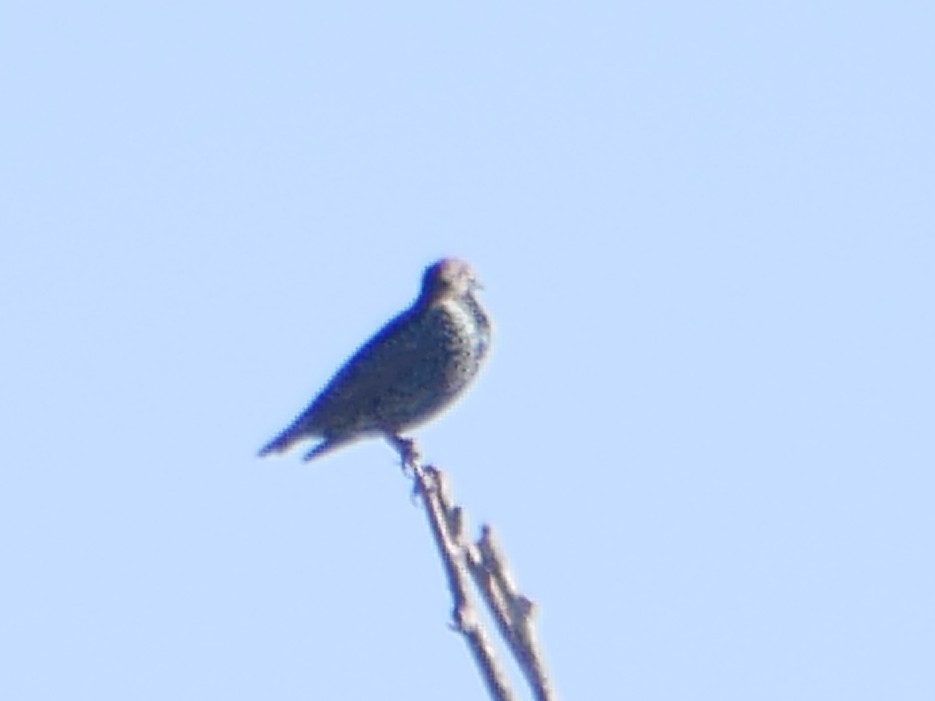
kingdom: Animalia
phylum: Chordata
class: Aves
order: Passeriformes
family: Sturnidae
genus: Sturnus
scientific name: Sturnus vulgaris
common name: Common starling
